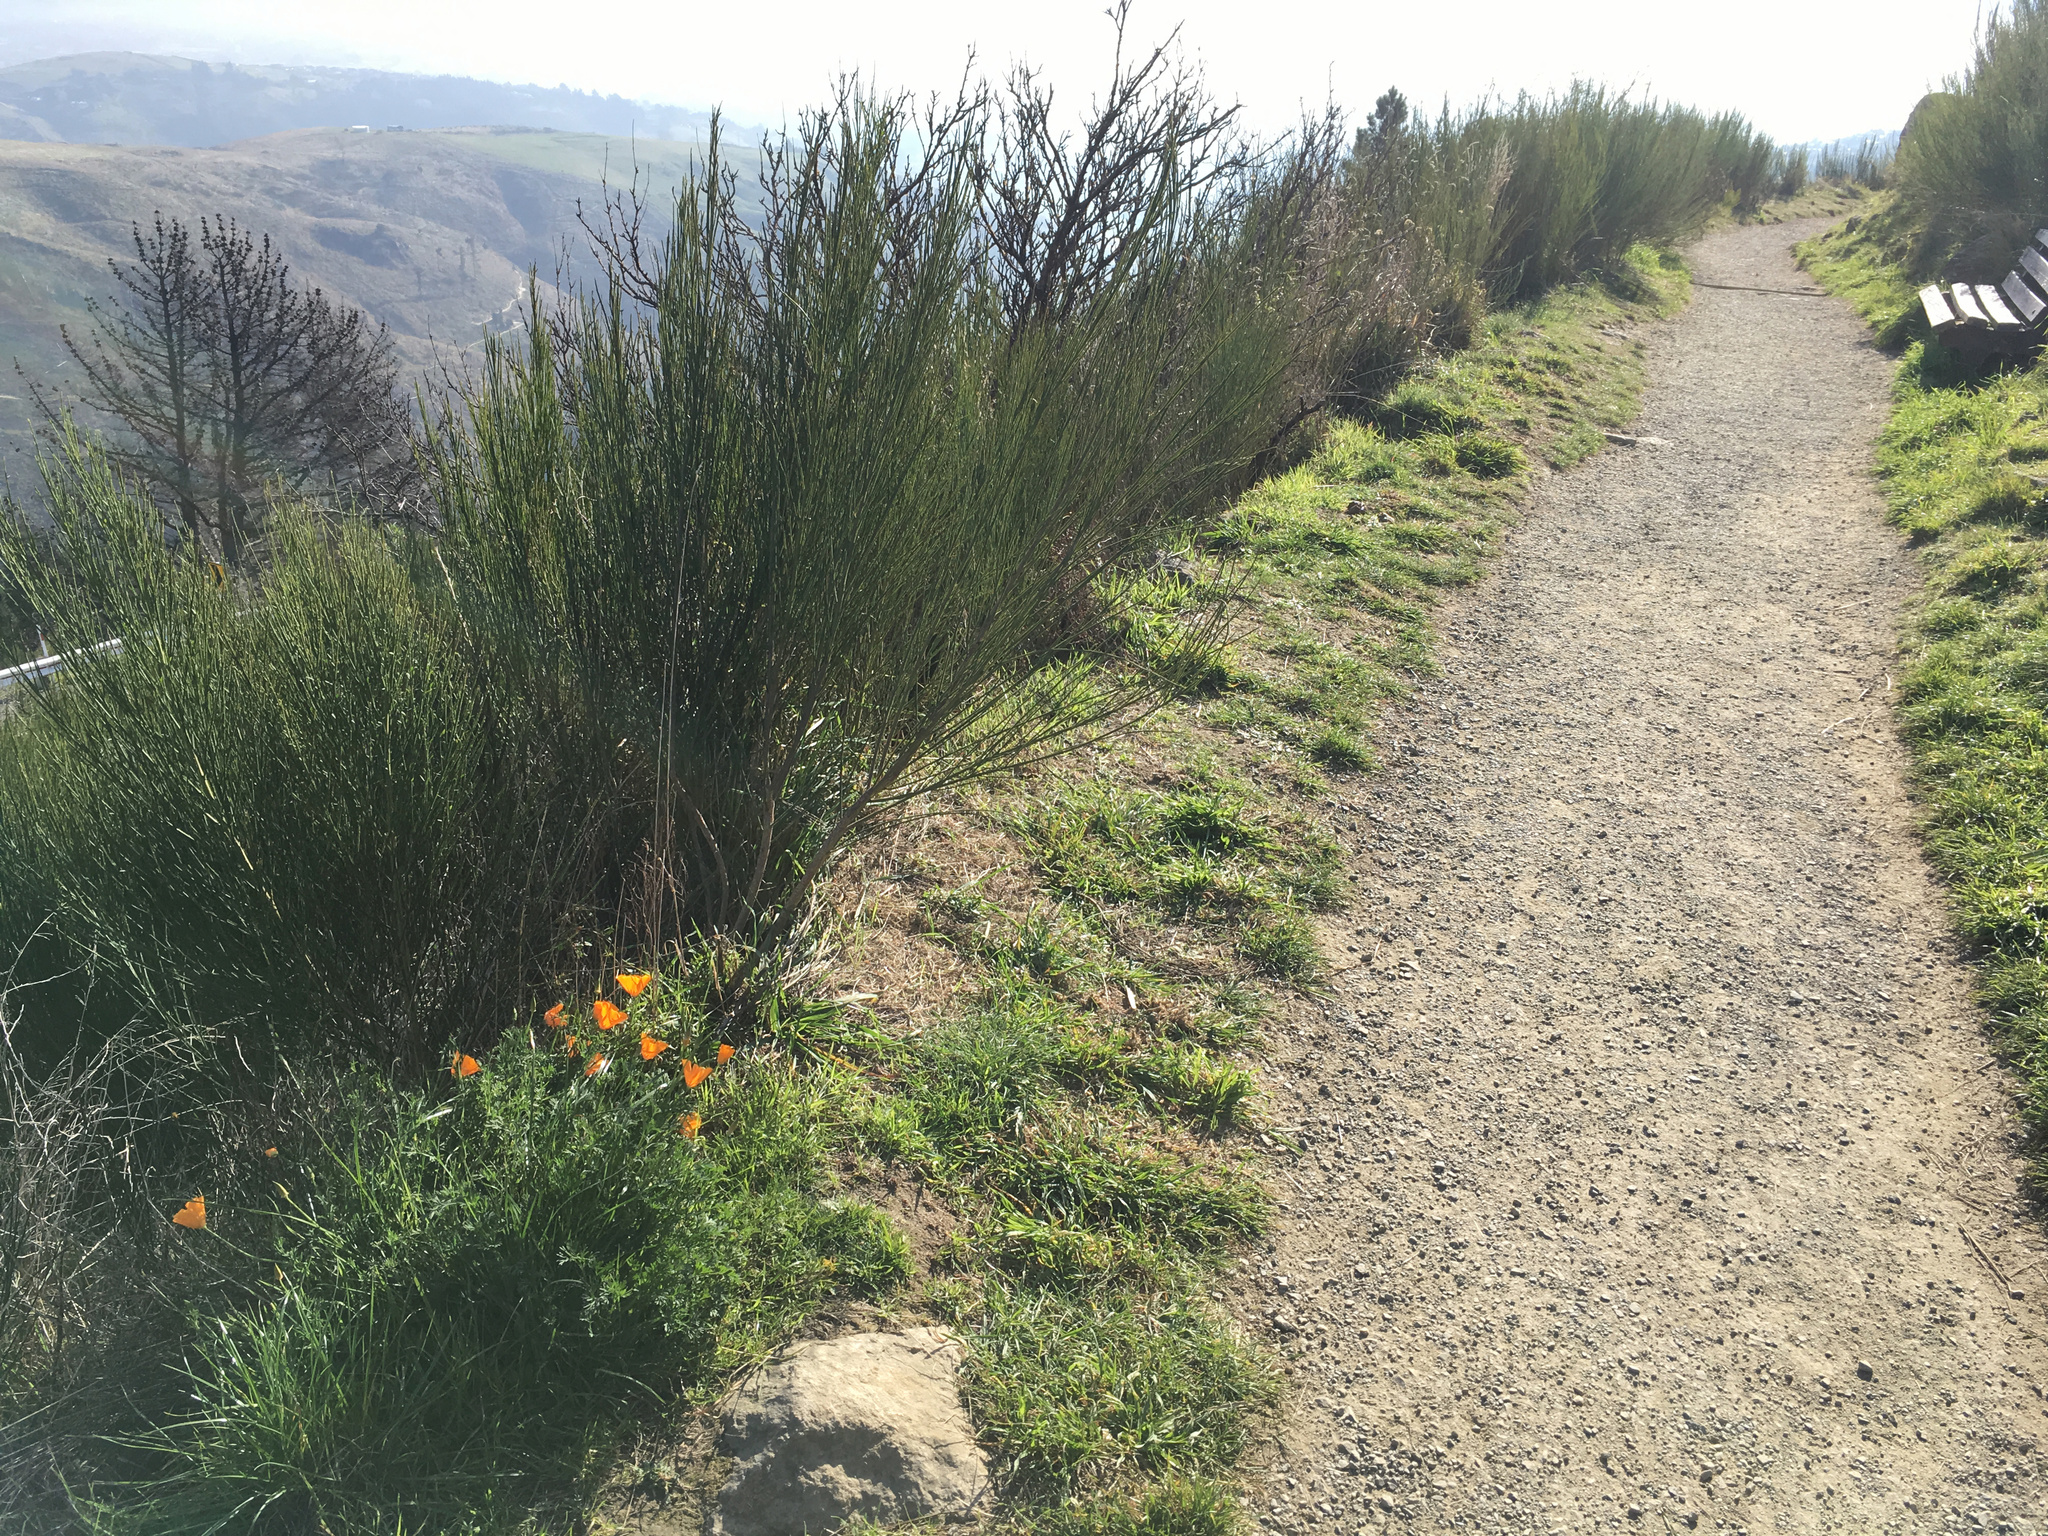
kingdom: Plantae
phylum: Tracheophyta
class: Magnoliopsida
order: Ranunculales
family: Papaveraceae
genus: Eschscholzia
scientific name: Eschscholzia californica
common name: California poppy
